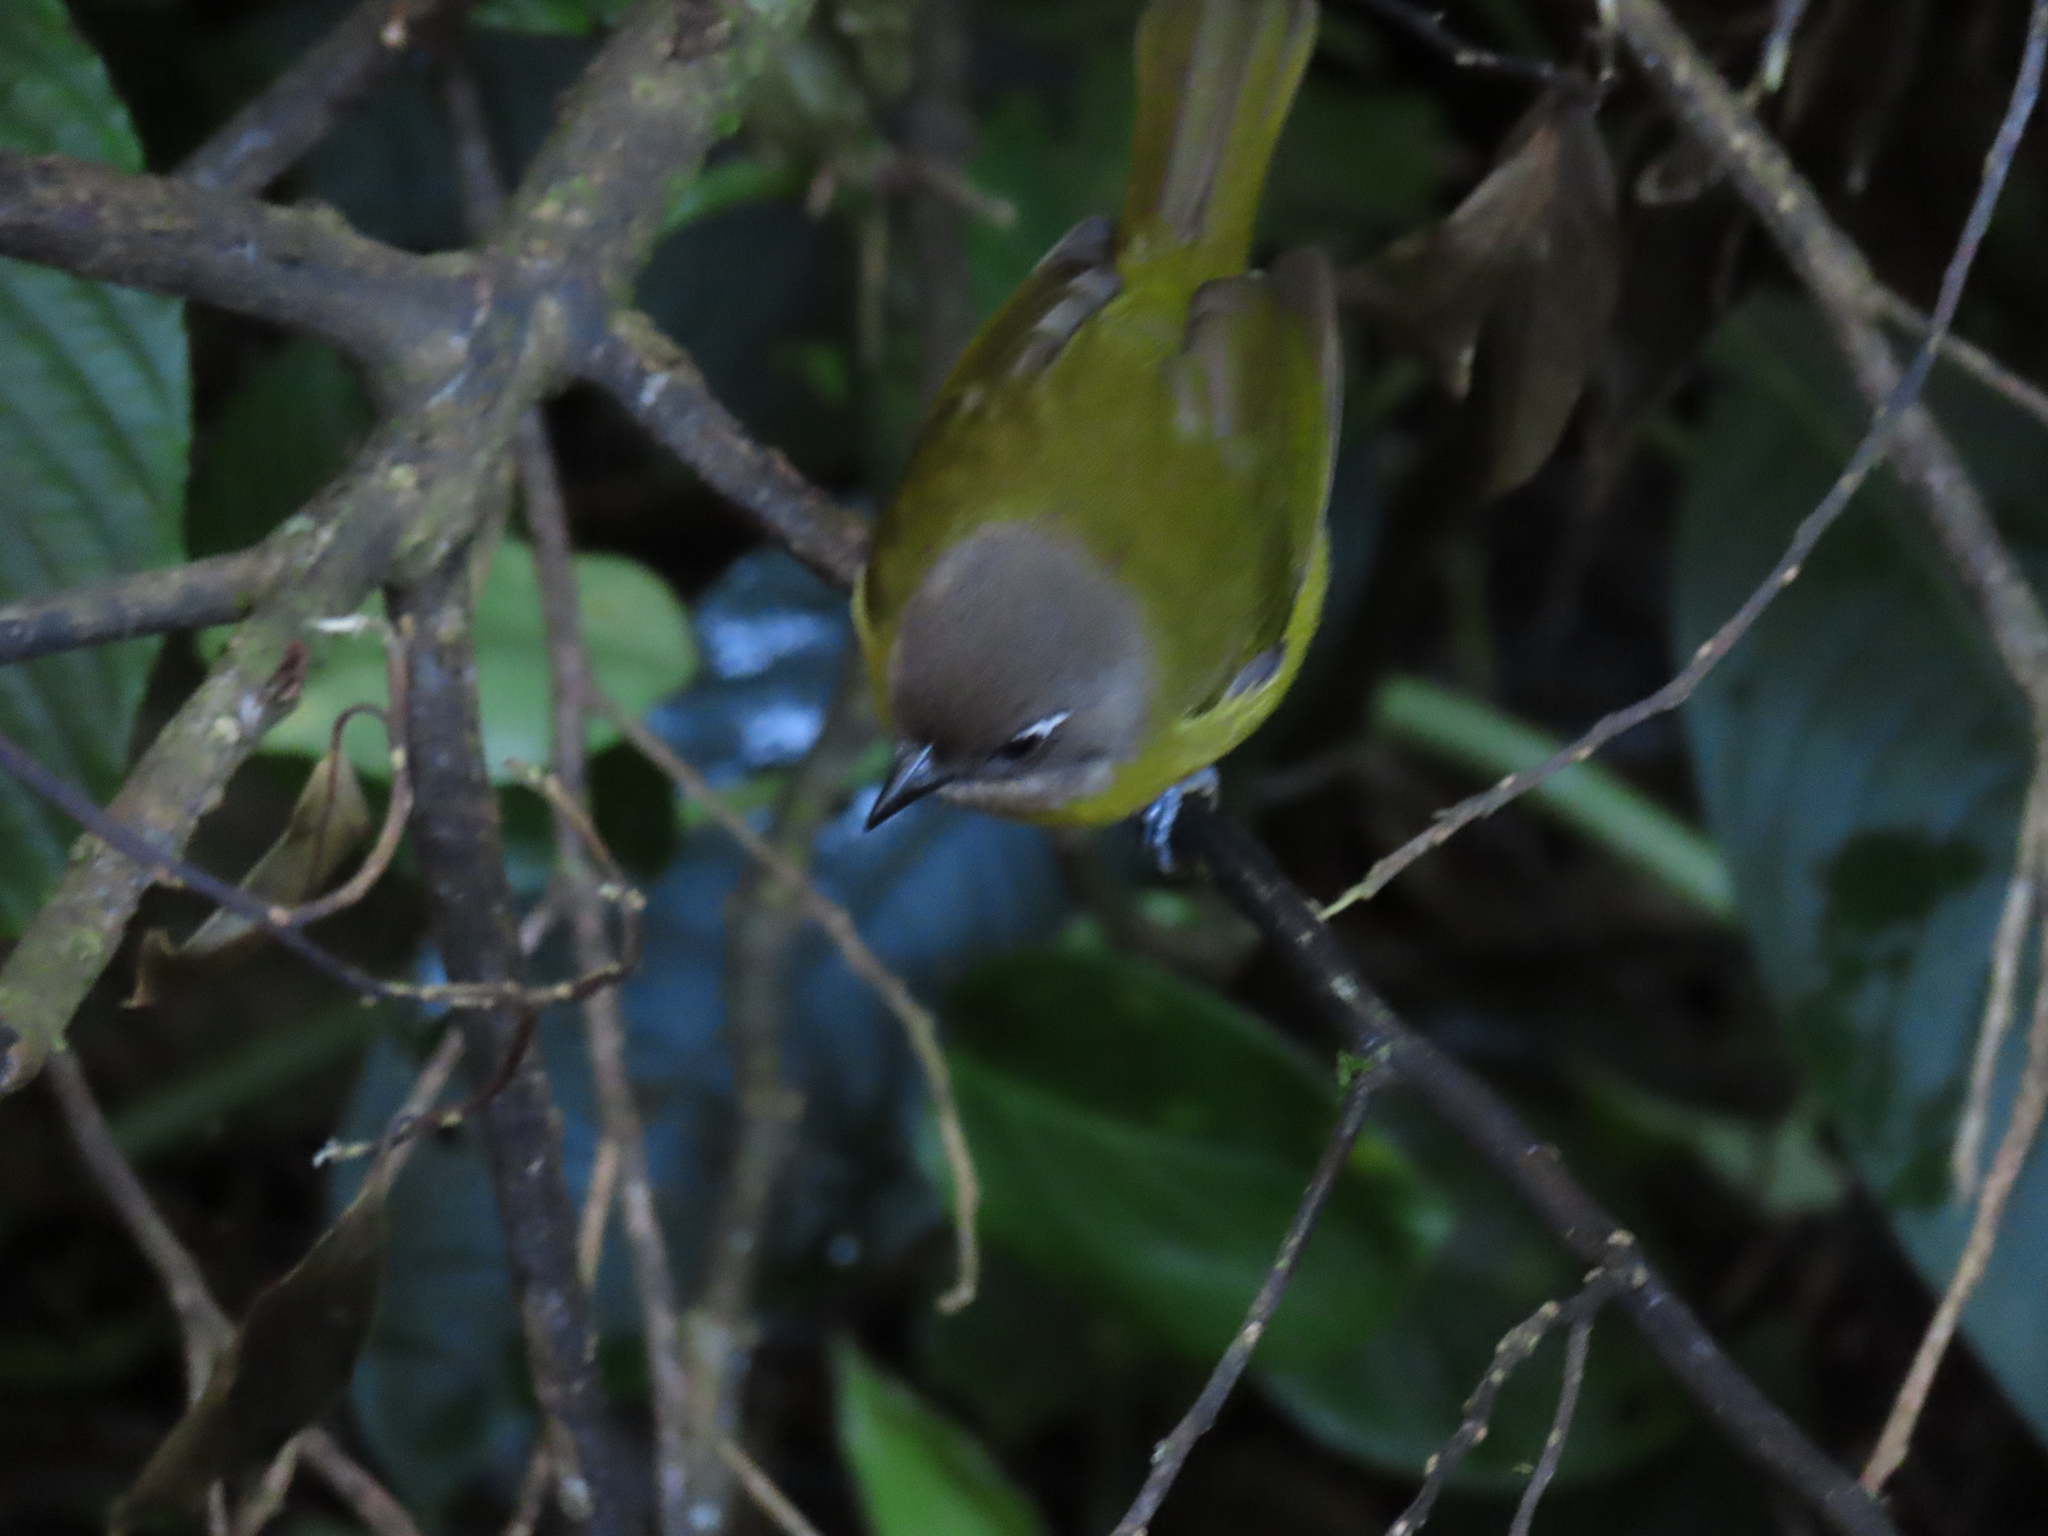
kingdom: Animalia
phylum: Chordata
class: Aves
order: Passeriformes
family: Passerellidae
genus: Chlorospingus
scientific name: Chlorospingus flavopectus
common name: Common chlorospingus
